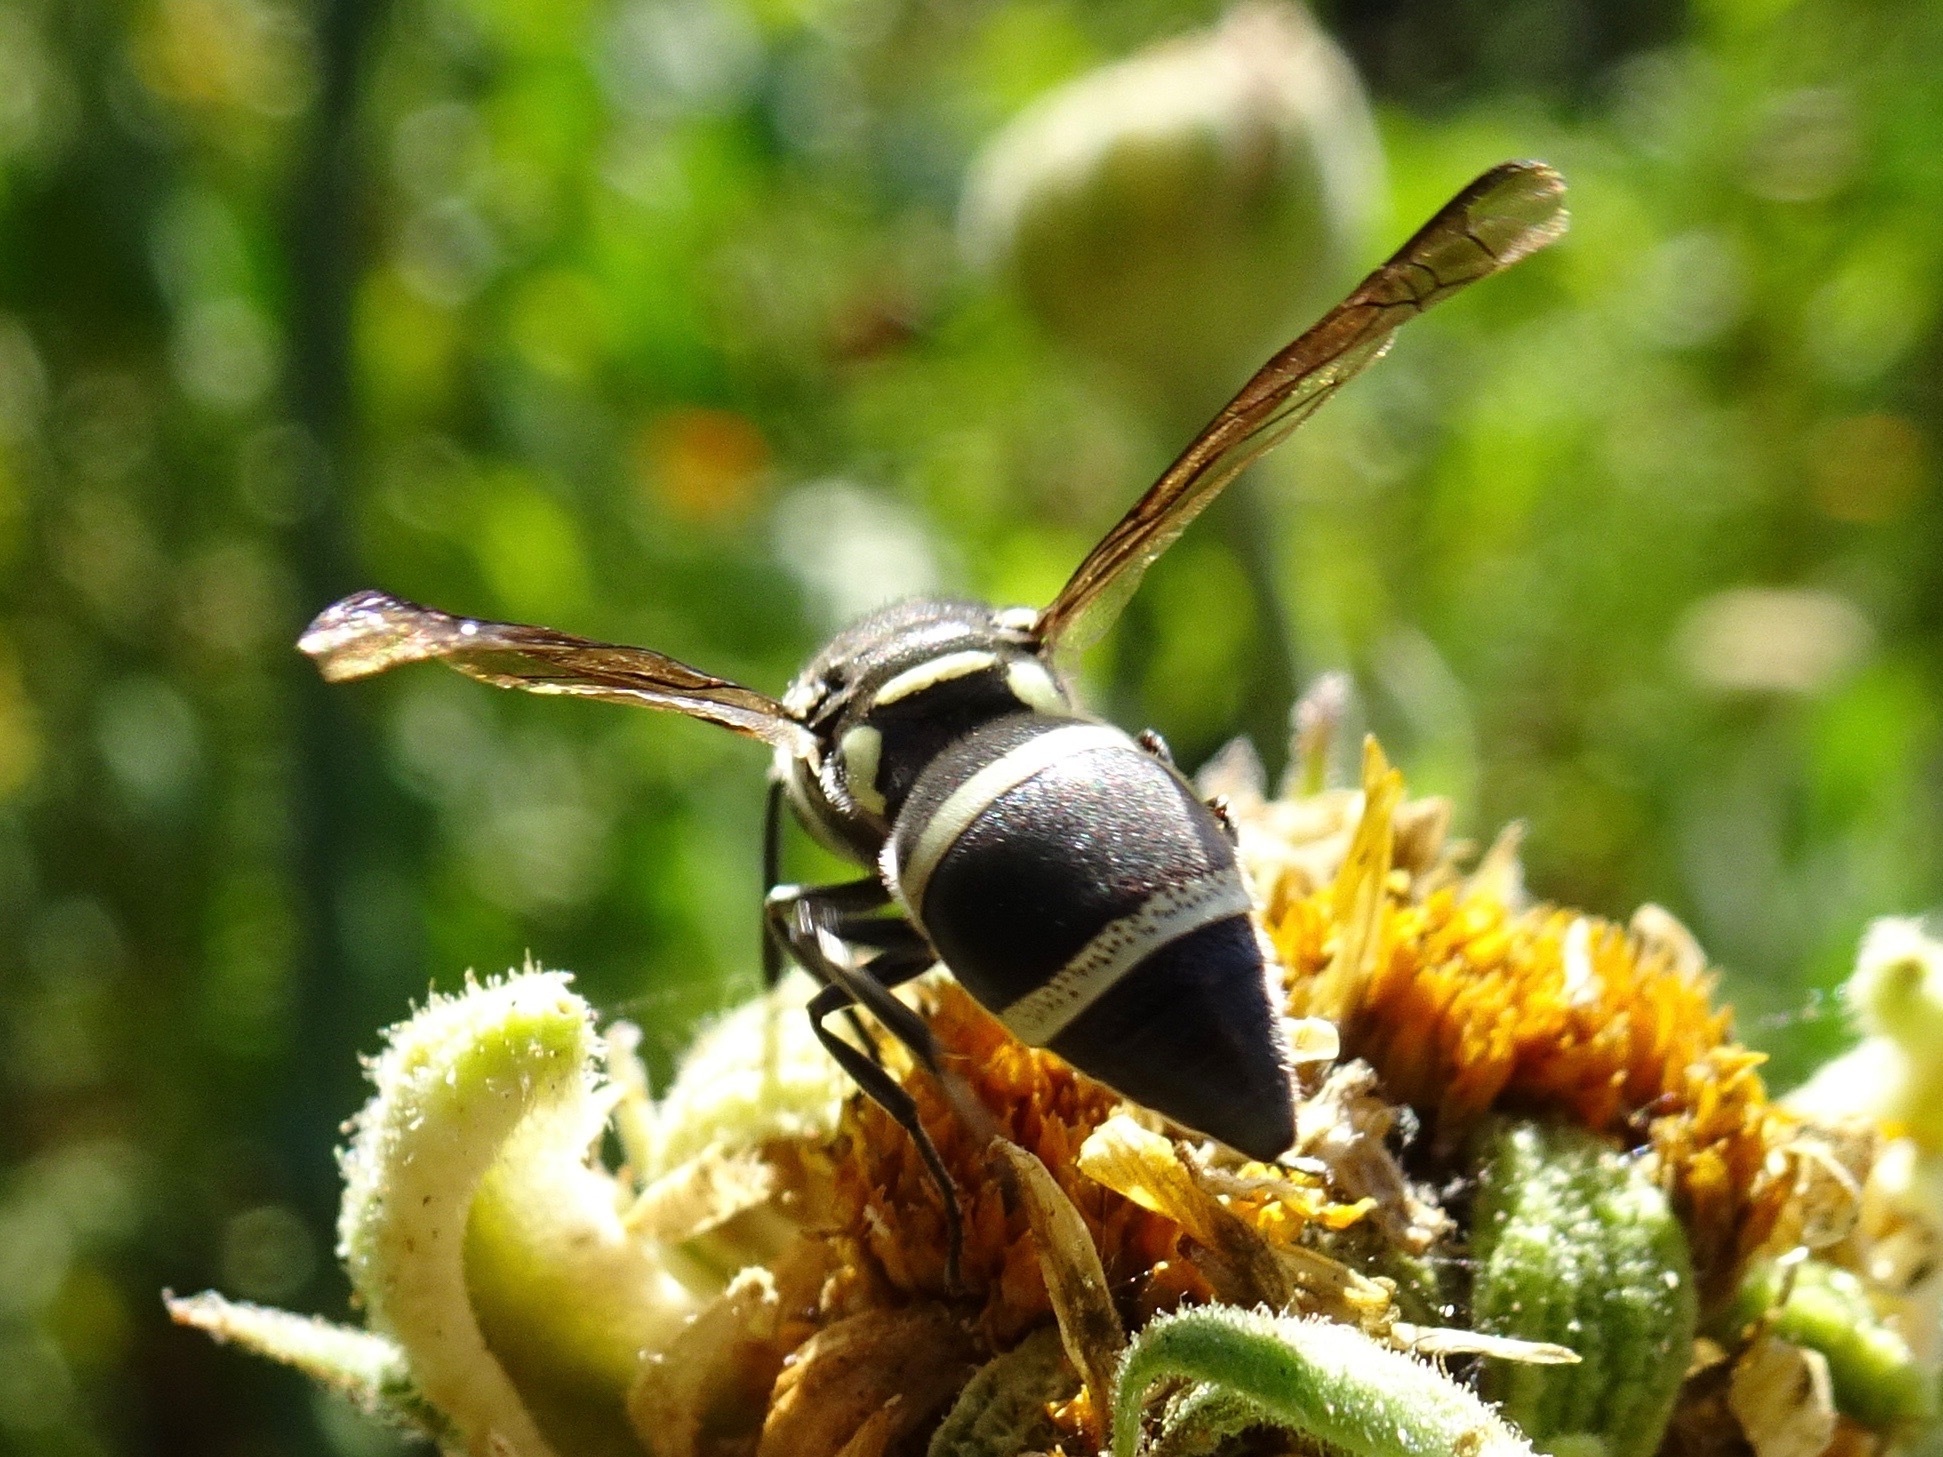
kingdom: Animalia
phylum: Arthropoda
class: Insecta
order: Hymenoptera
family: Eumenidae
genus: Pachodynerus
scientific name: Pachodynerus californicus
